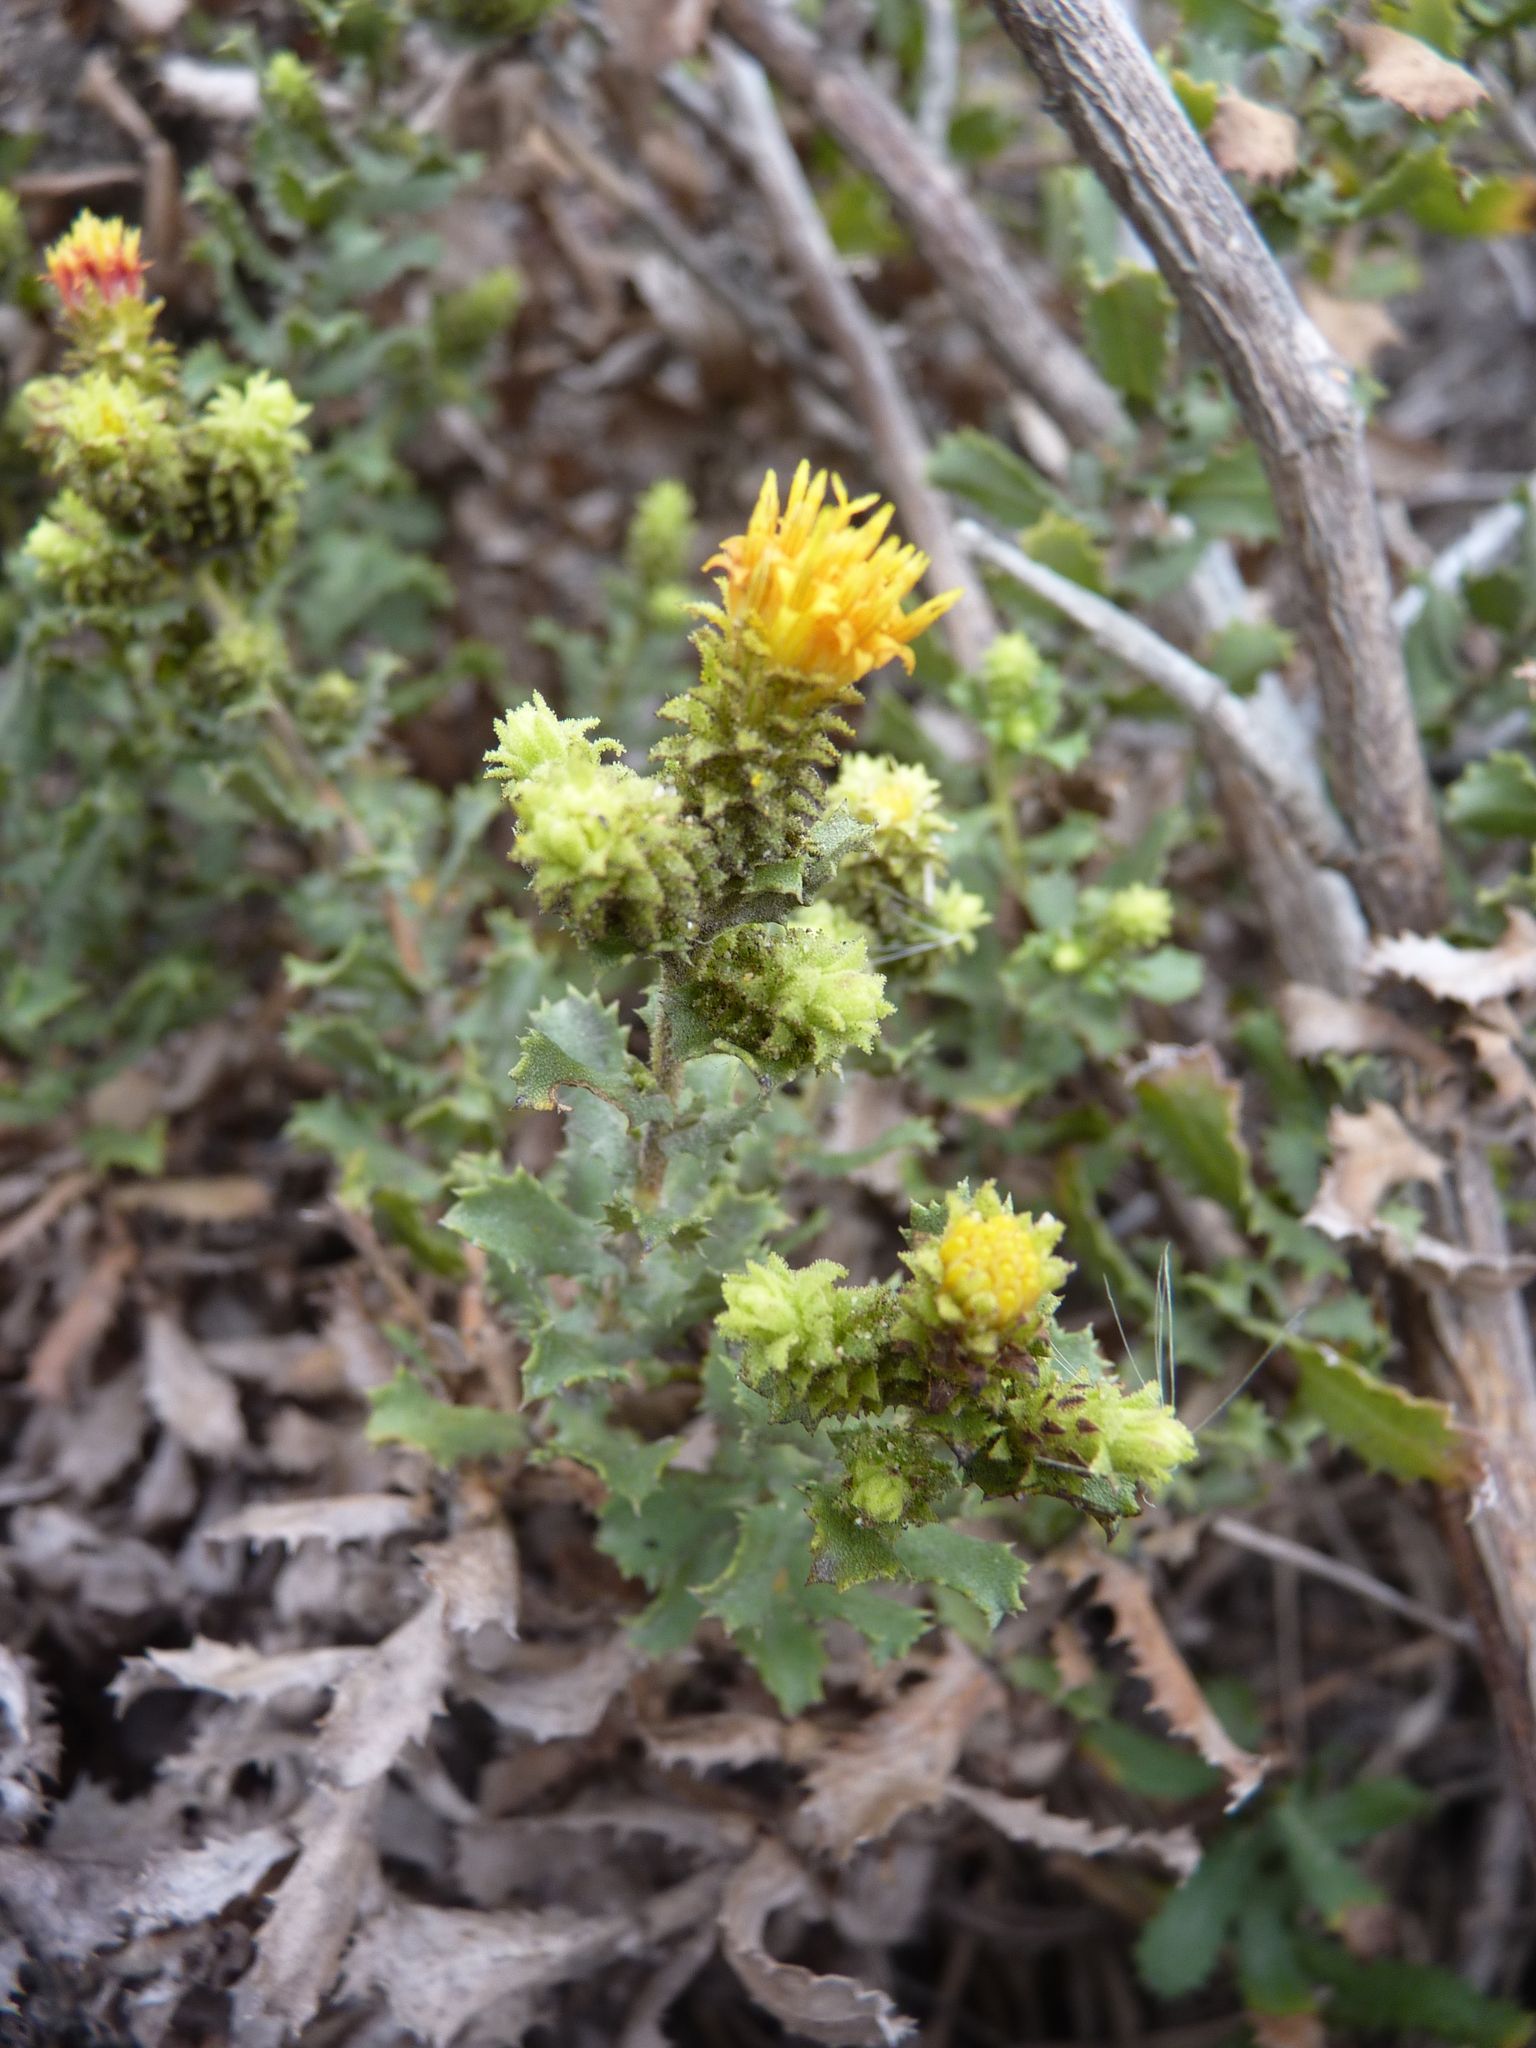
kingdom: Plantae
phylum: Tracheophyta
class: Magnoliopsida
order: Asterales
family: Asteraceae
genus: Hazardia
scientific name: Hazardia squarrosa
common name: Saw-tooth goldenbush
